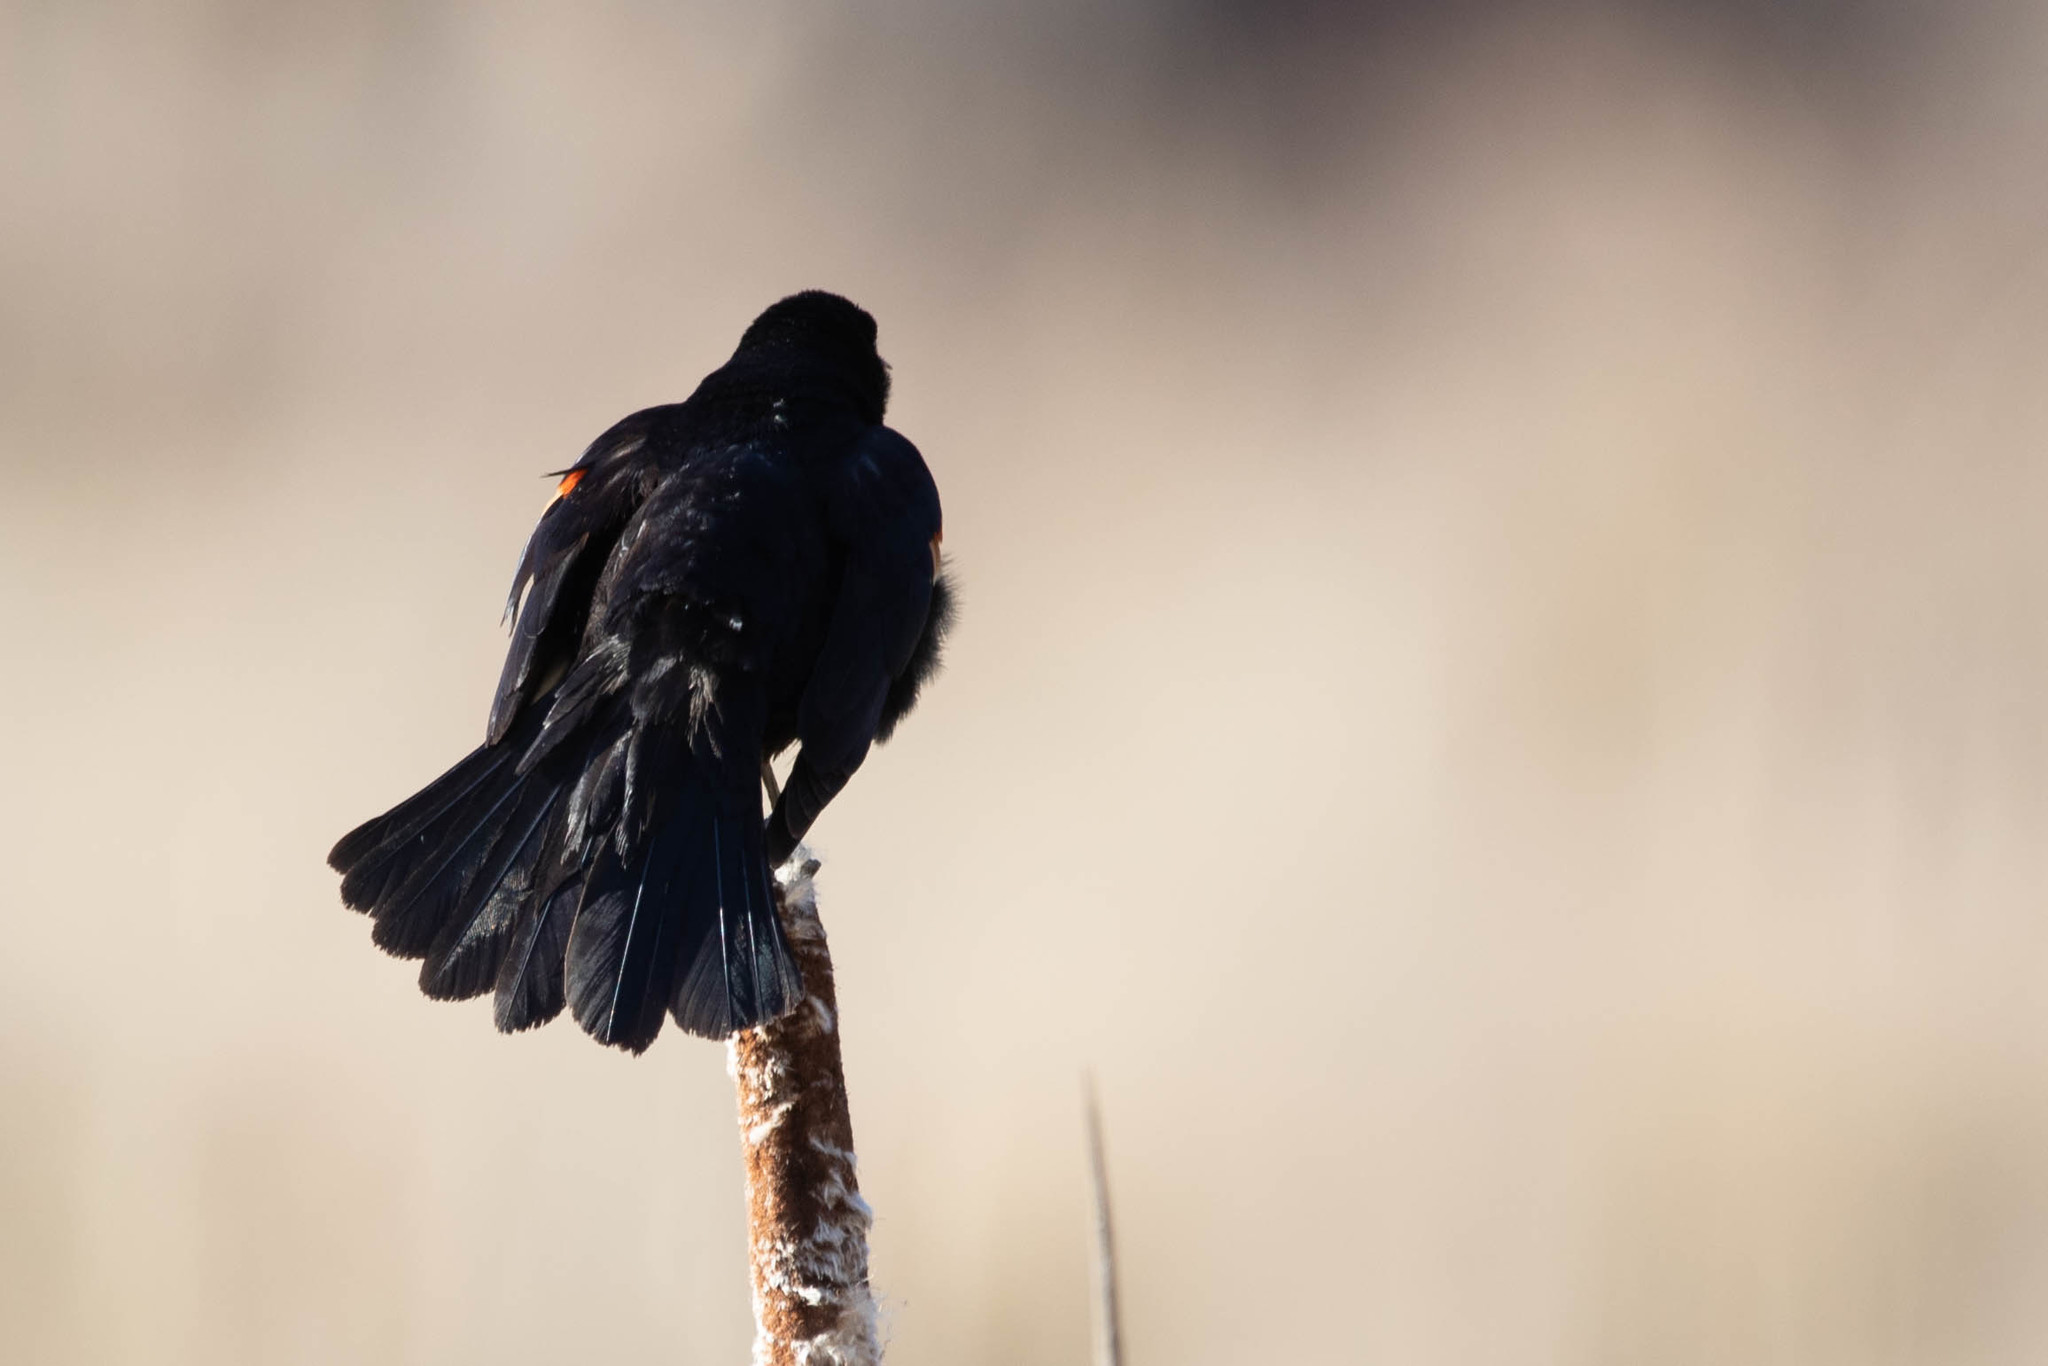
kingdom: Animalia
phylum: Chordata
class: Aves
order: Passeriformes
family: Icteridae
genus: Agelaius
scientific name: Agelaius phoeniceus
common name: Red-winged blackbird
